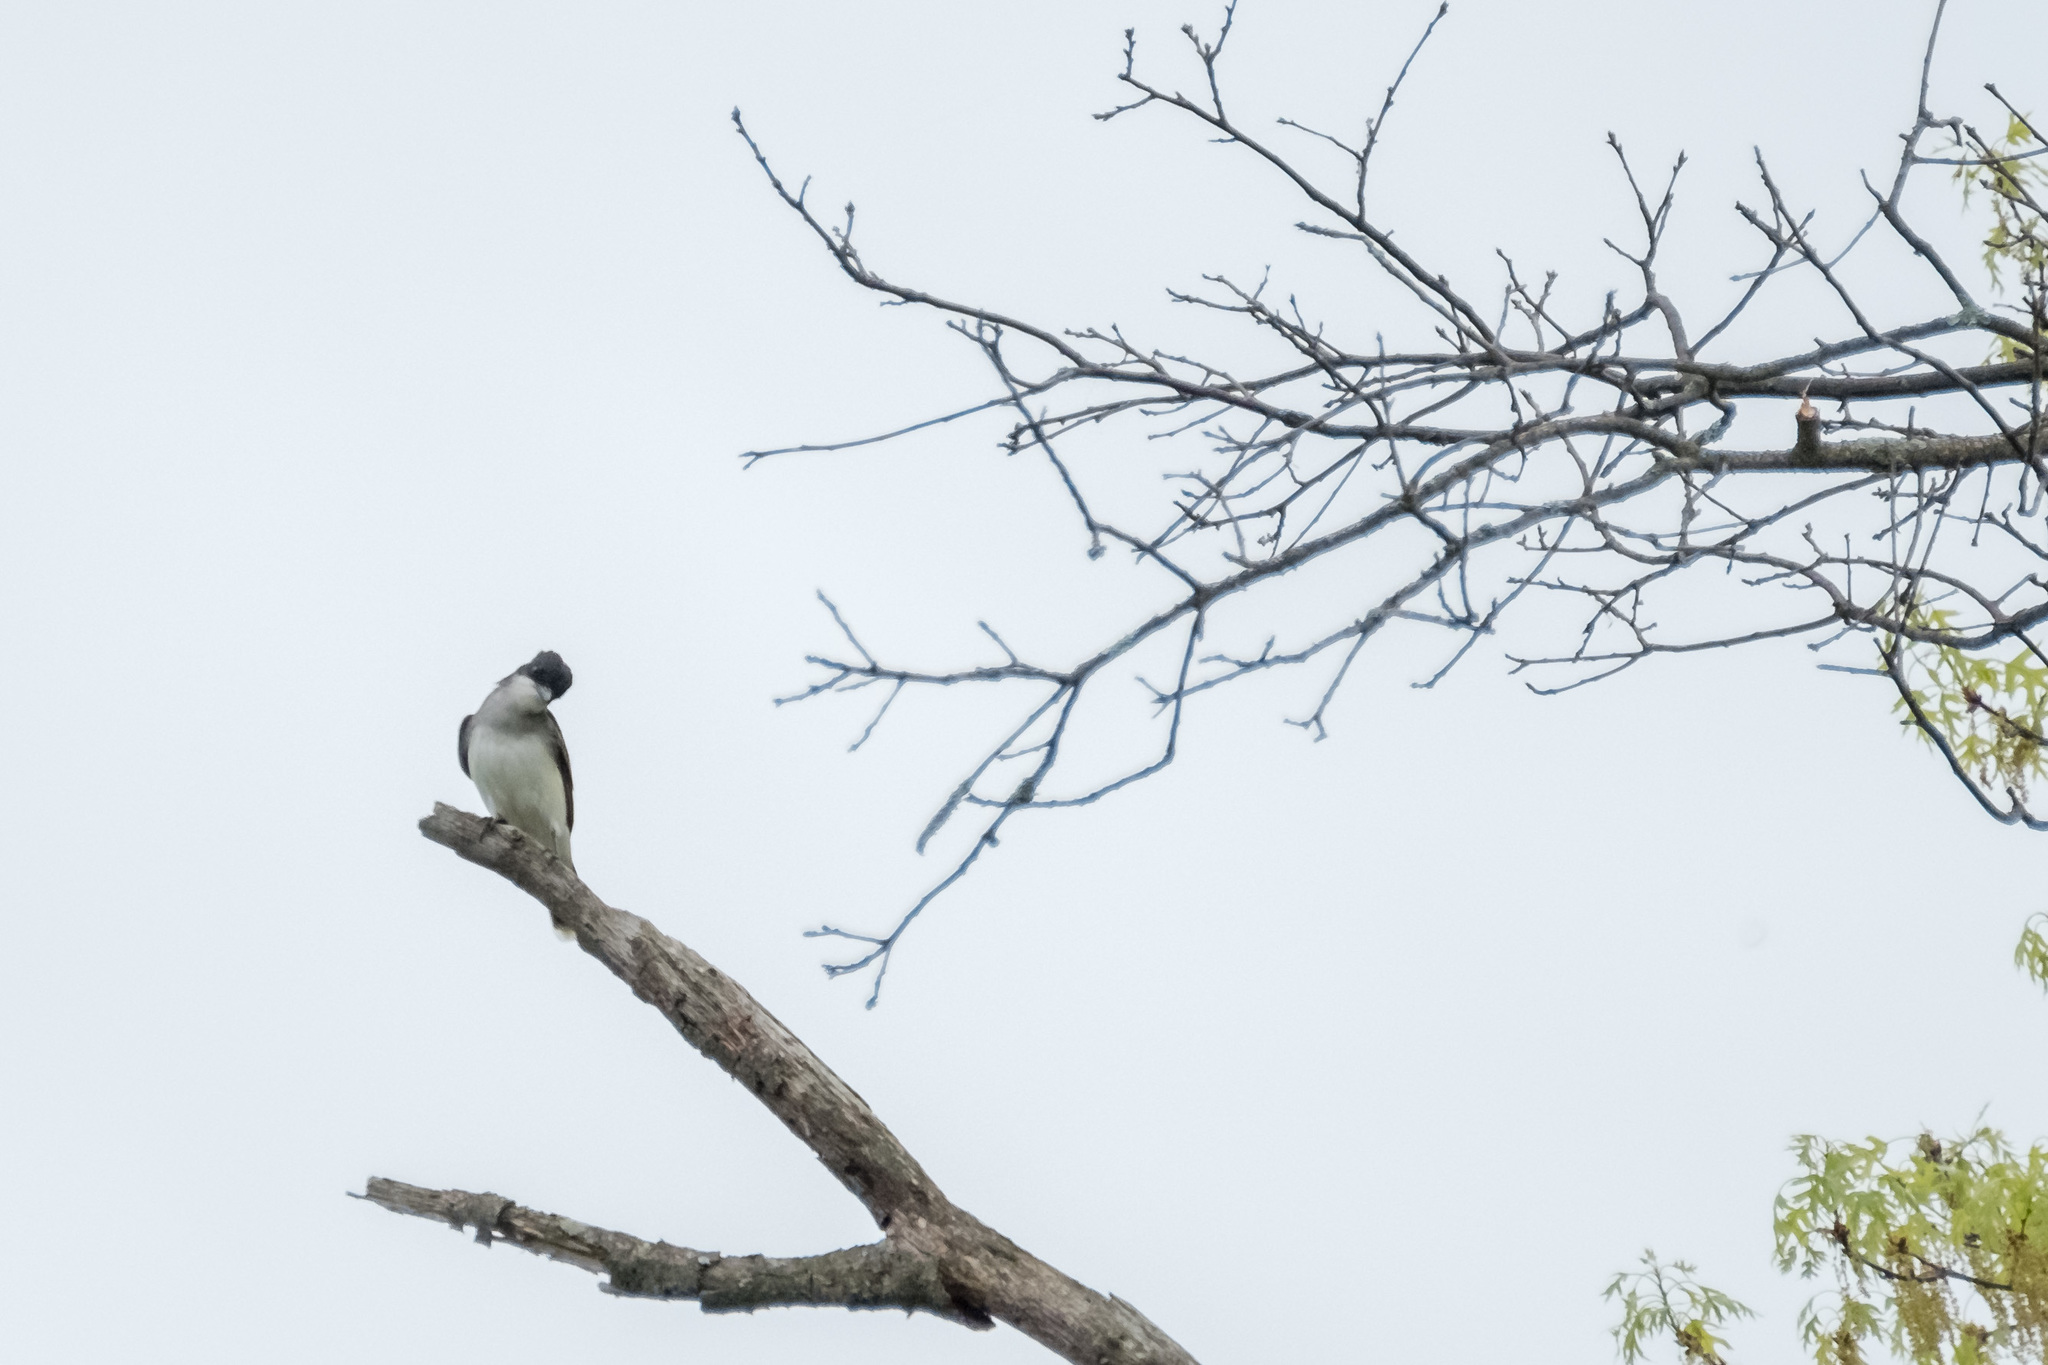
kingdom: Animalia
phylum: Chordata
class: Aves
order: Passeriformes
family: Tyrannidae
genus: Tyrannus
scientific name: Tyrannus tyrannus
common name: Eastern kingbird
